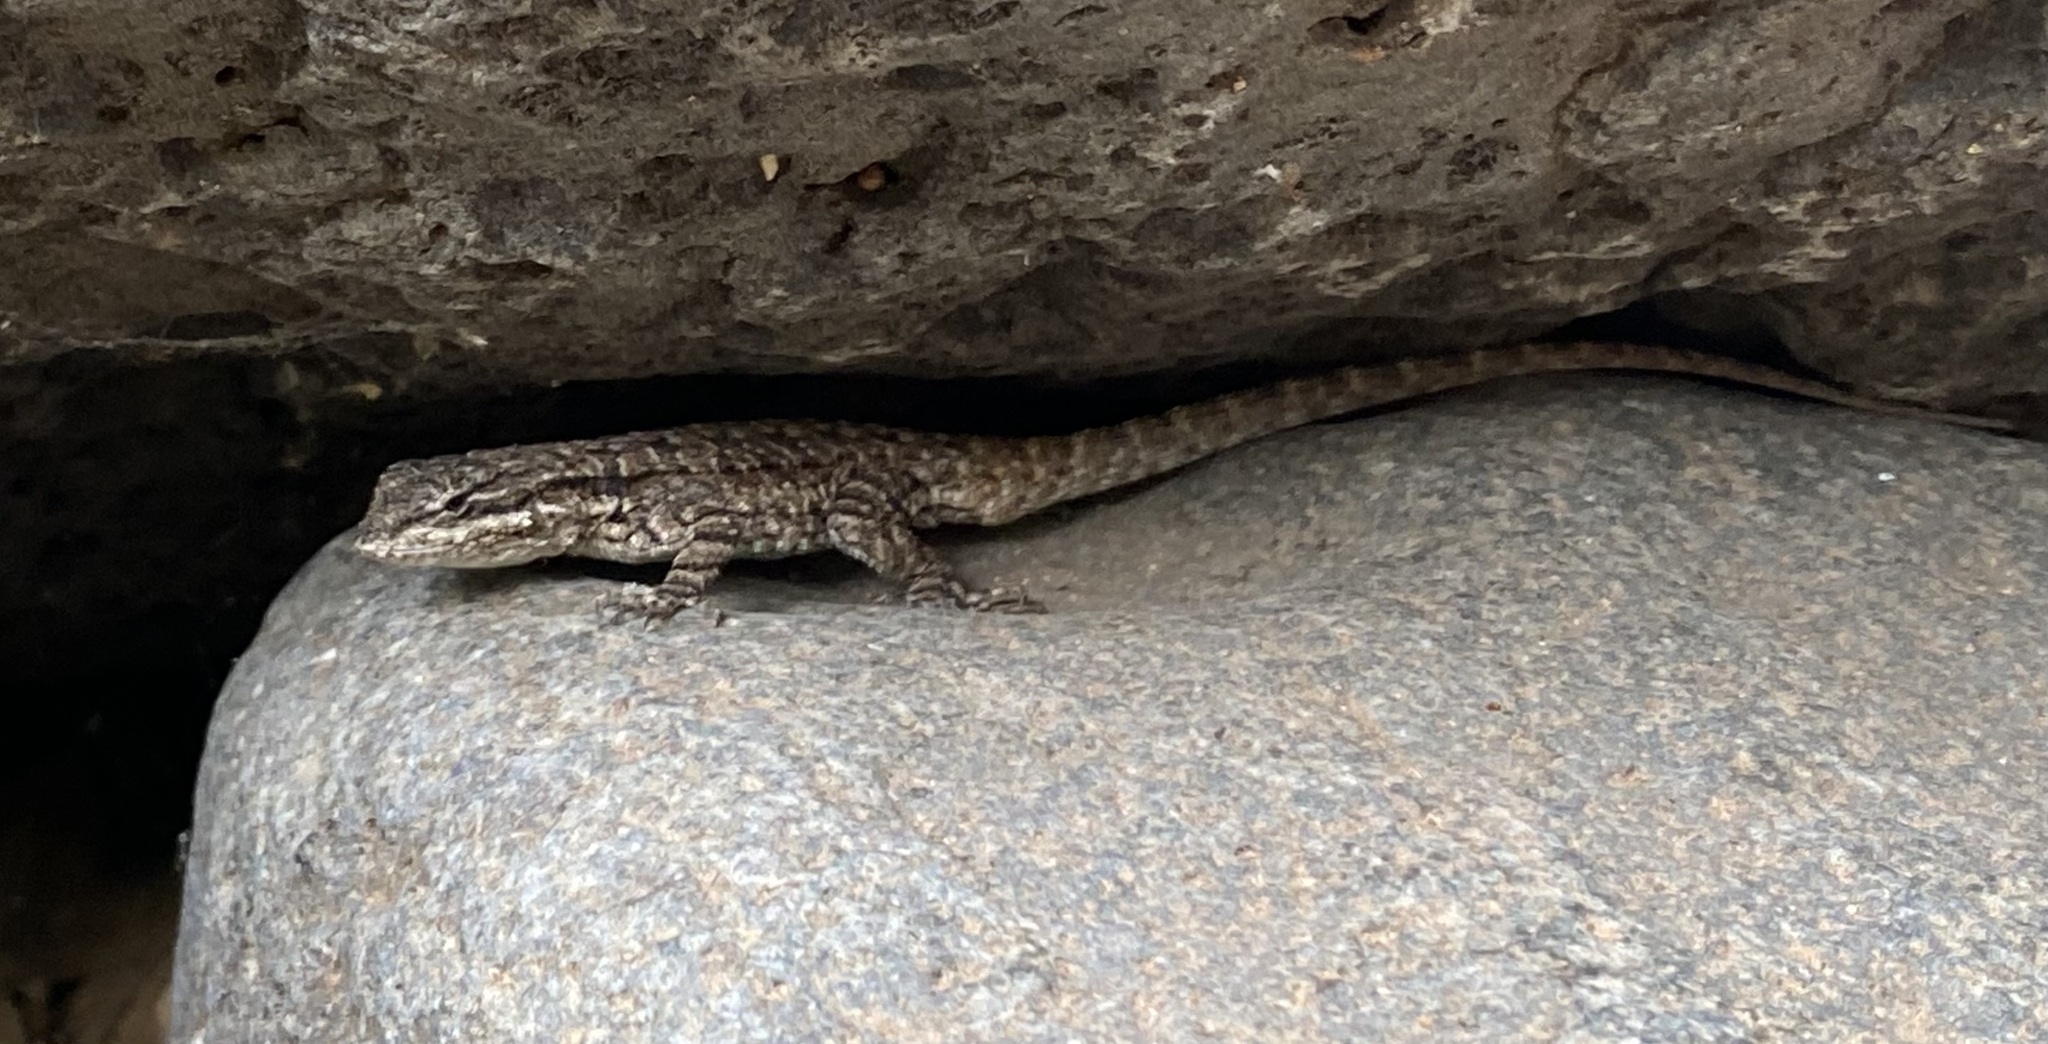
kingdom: Animalia
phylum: Chordata
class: Squamata
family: Phrynosomatidae
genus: Urosaurus
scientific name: Urosaurus ornatus
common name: Ornate tree lizard
